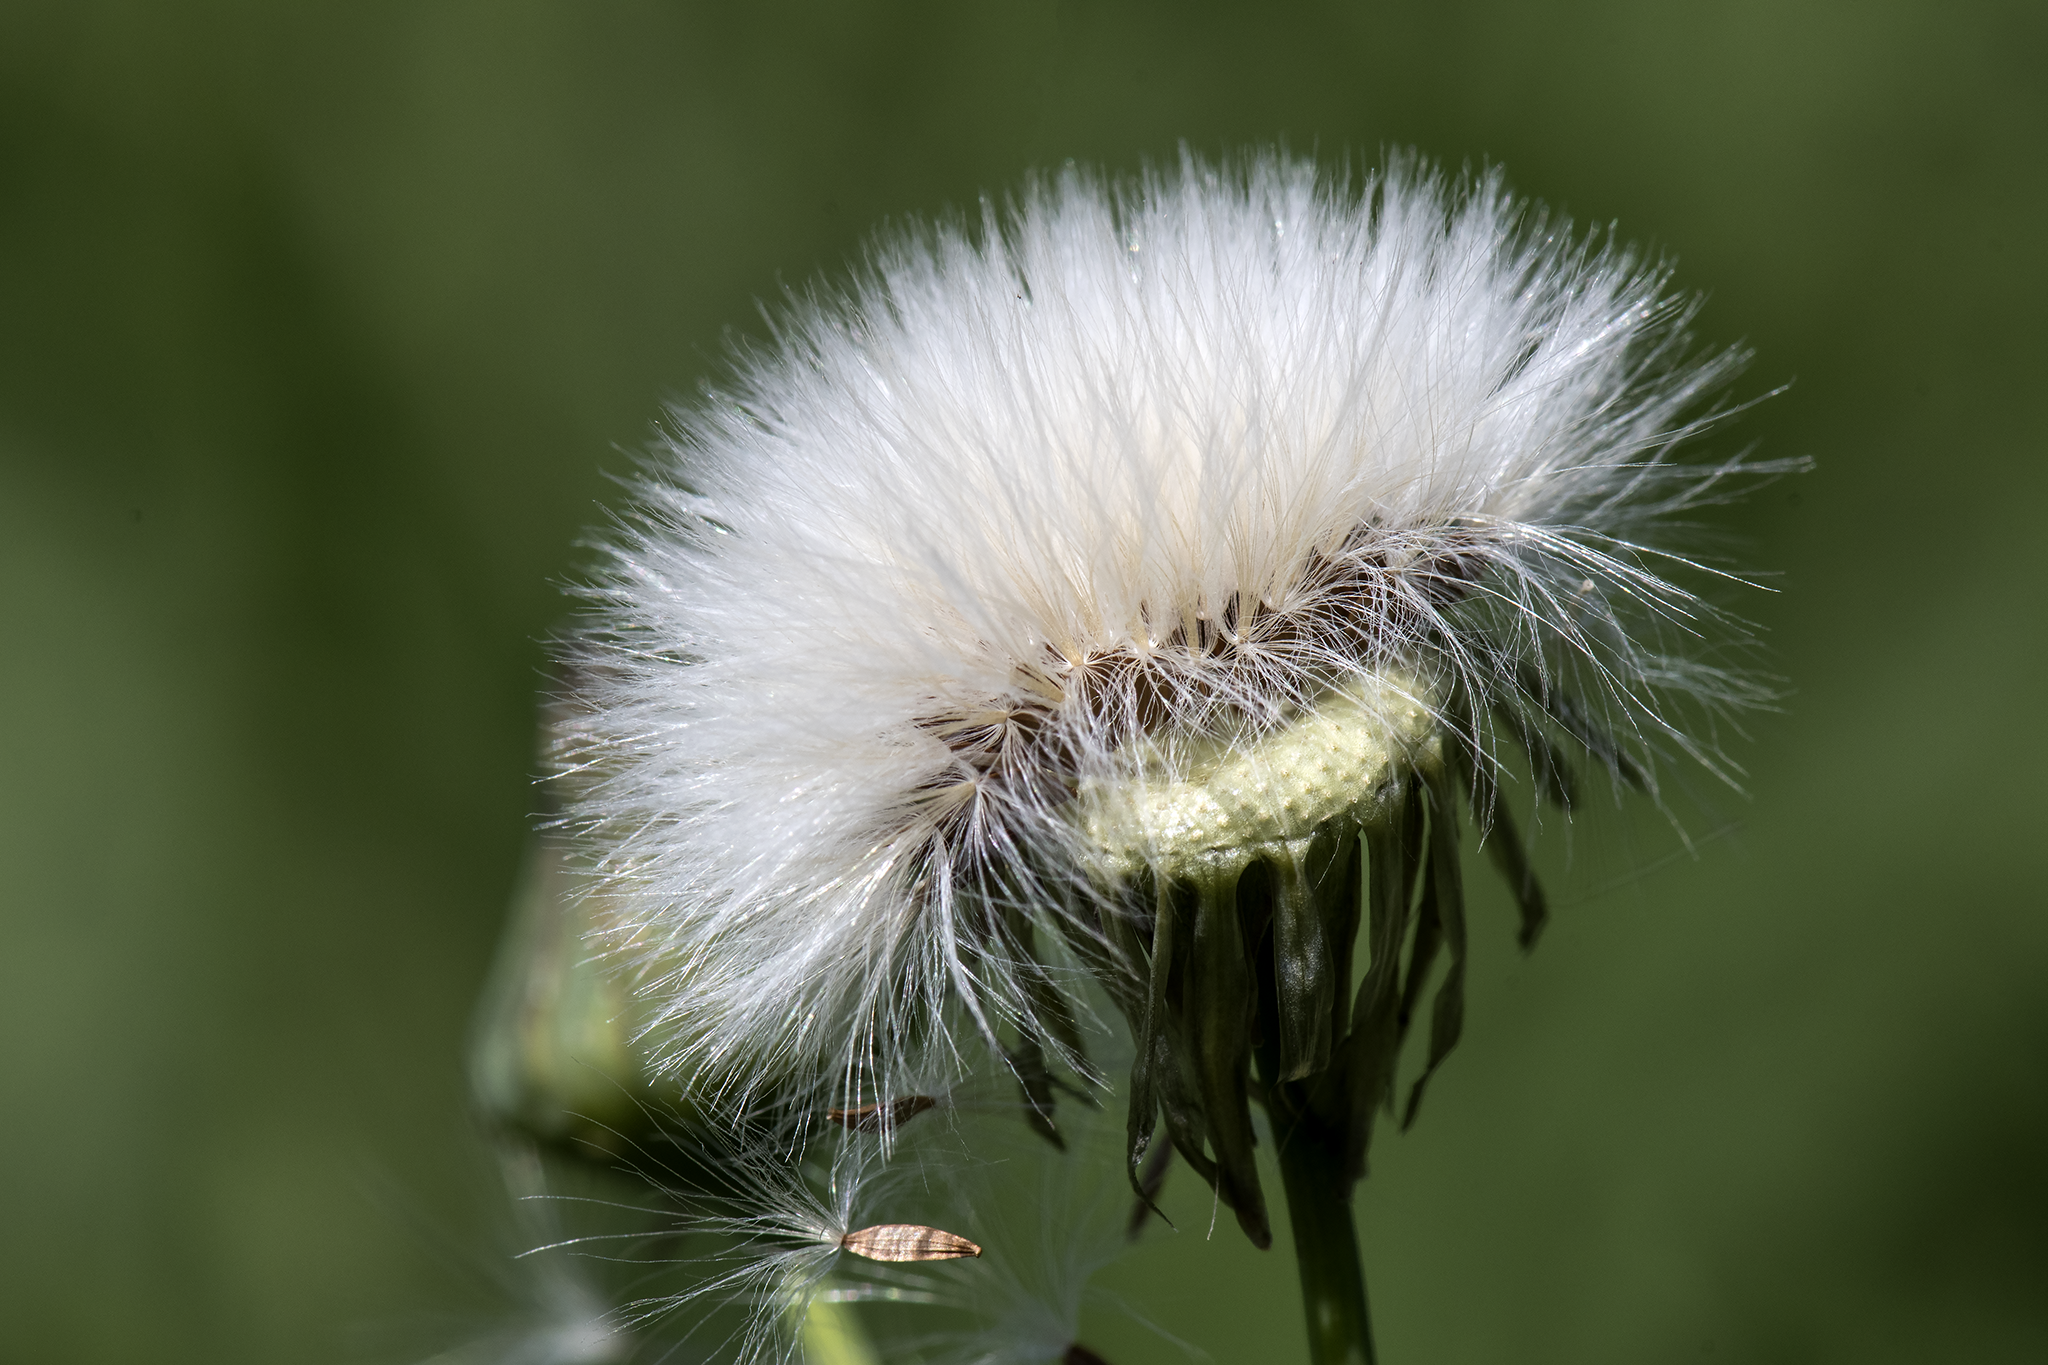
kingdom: Plantae
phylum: Tracheophyta
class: Magnoliopsida
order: Asterales
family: Asteraceae
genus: Sonchus
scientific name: Sonchus asper
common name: Prickly sow-thistle
